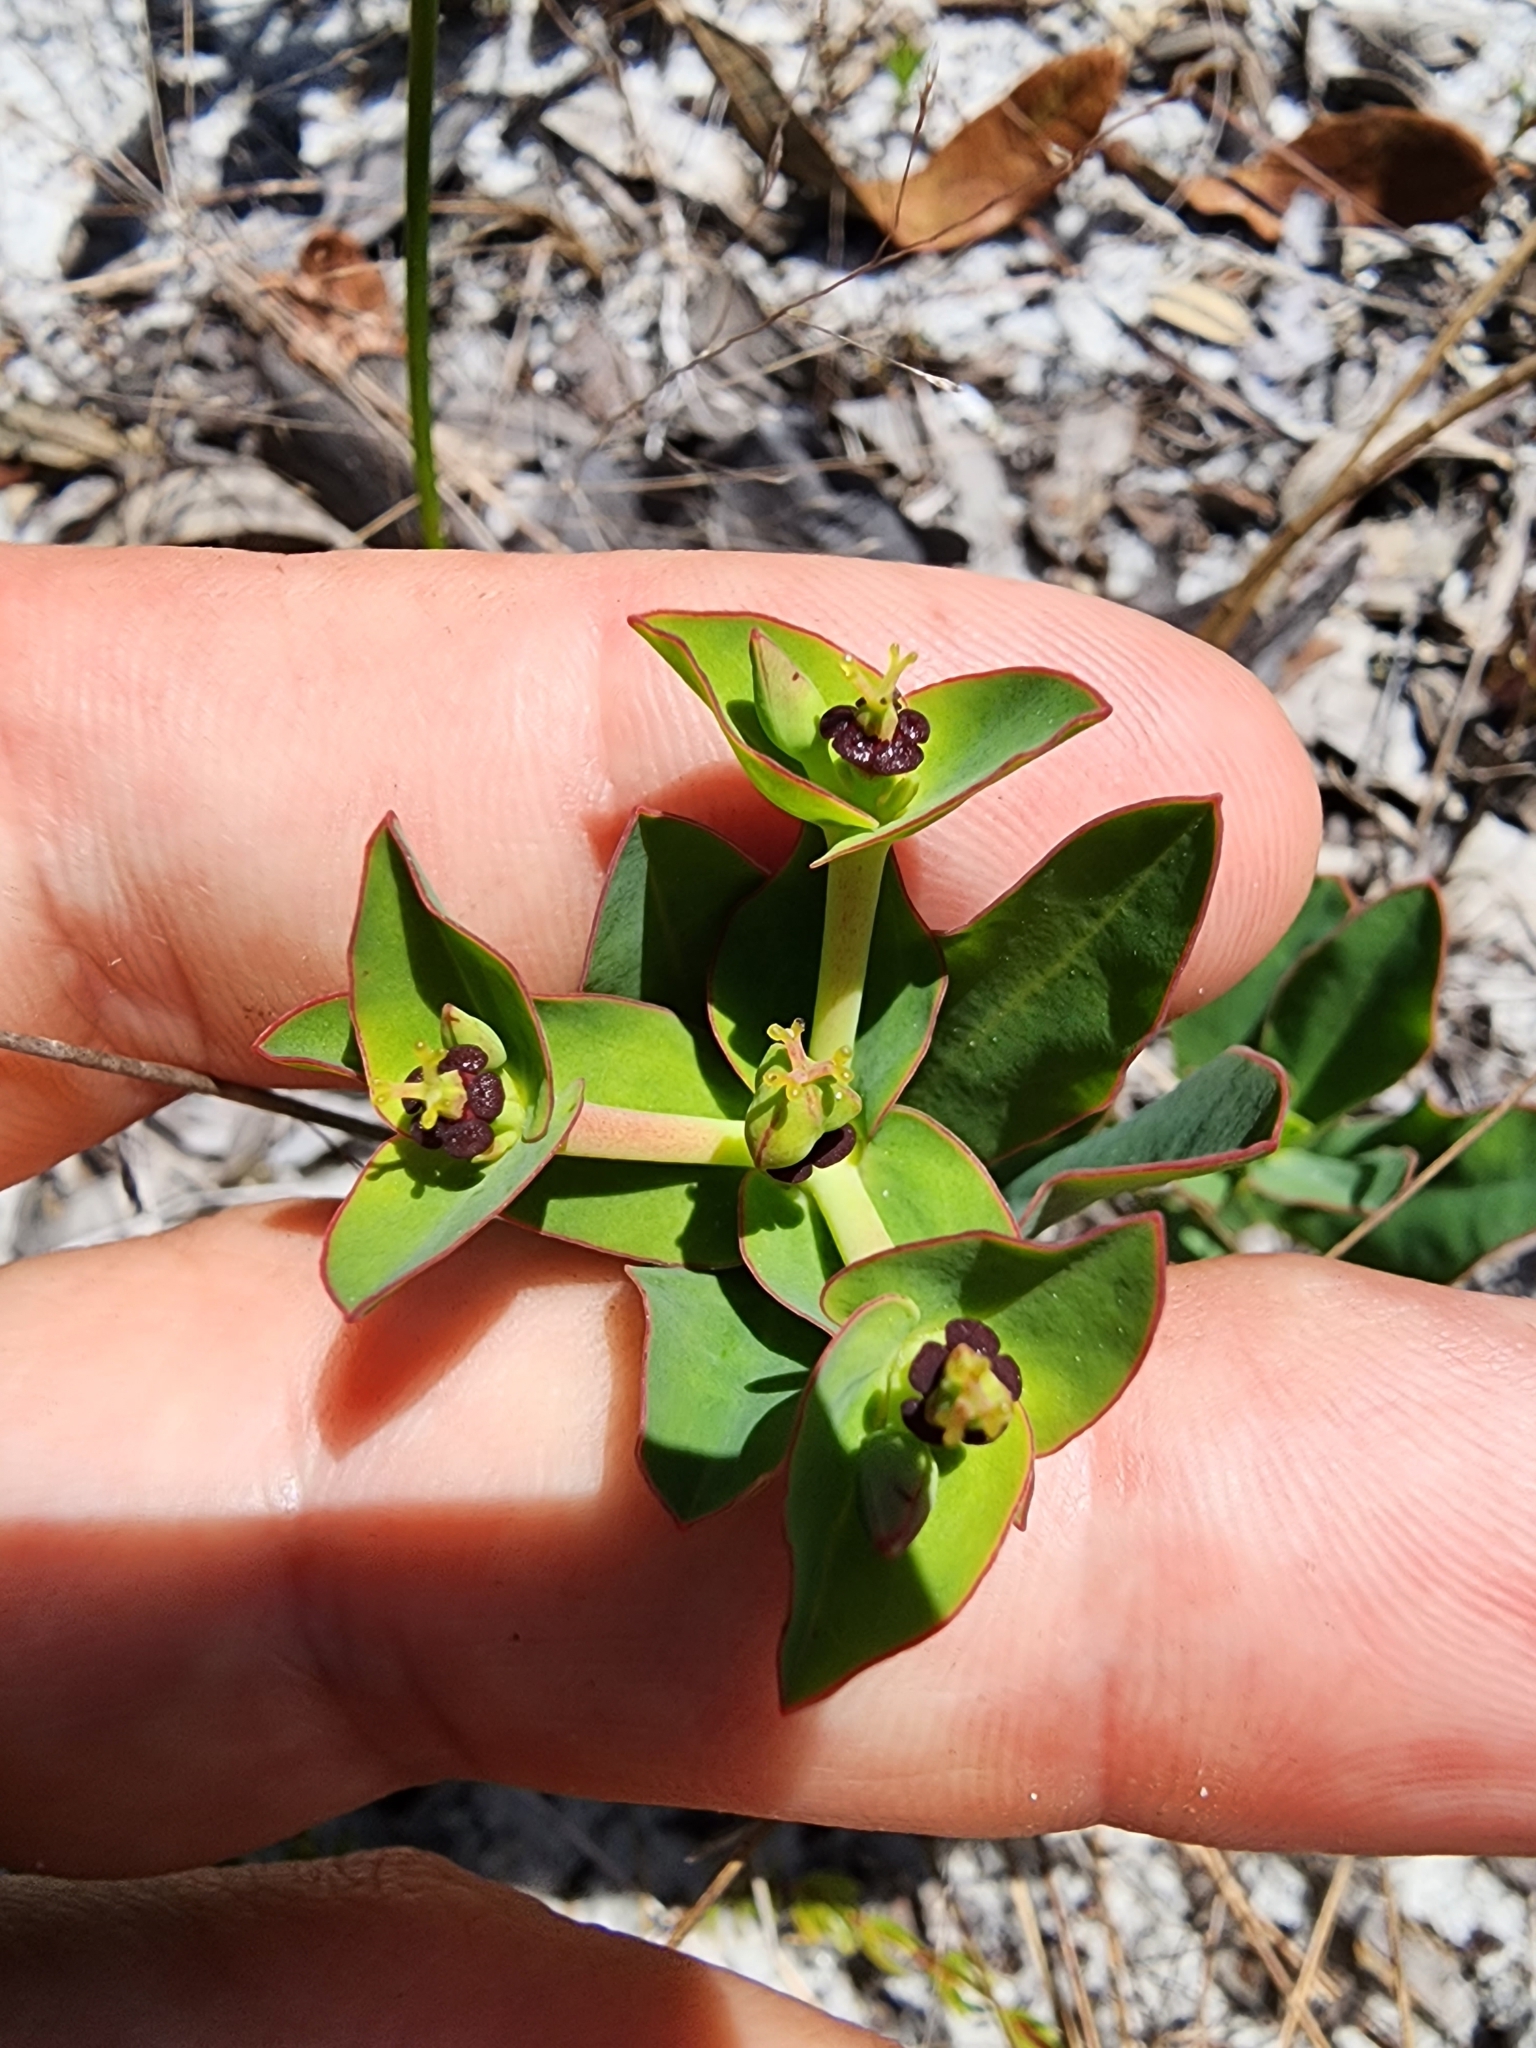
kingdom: Plantae
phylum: Tracheophyta
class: Magnoliopsida
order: Malpighiales
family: Euphorbiaceae
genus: Euphorbia
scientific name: Euphorbia telephioides
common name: Telephus spurge
